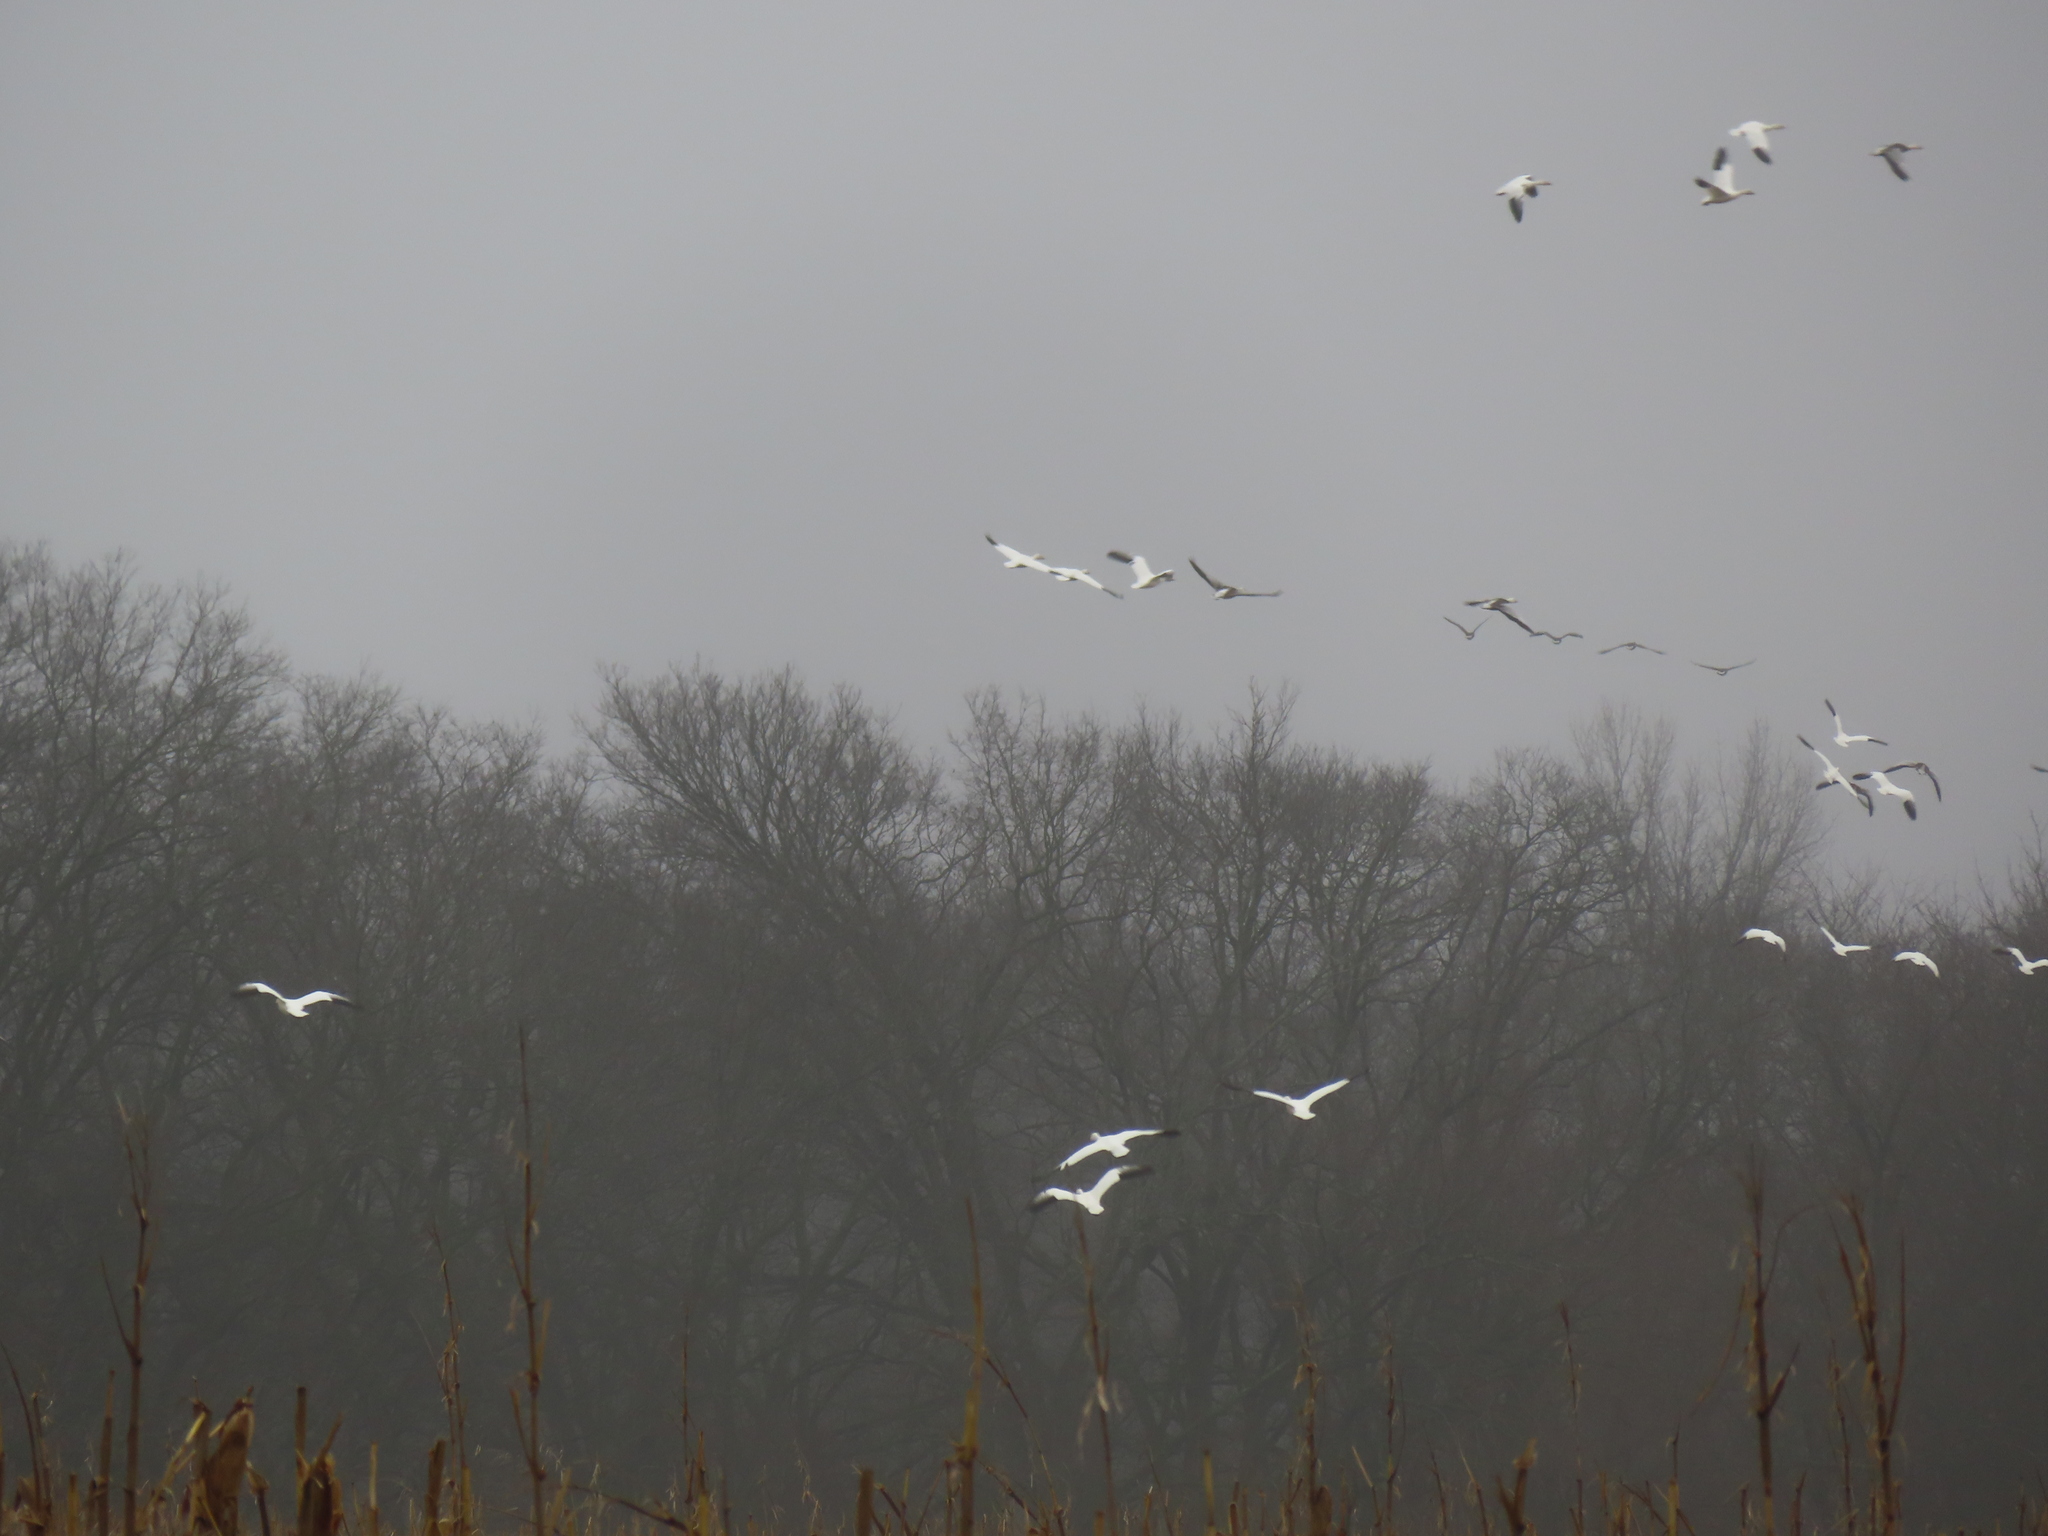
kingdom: Animalia
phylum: Chordata
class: Aves
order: Anseriformes
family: Anatidae
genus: Anser
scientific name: Anser caerulescens
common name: Snow goose
